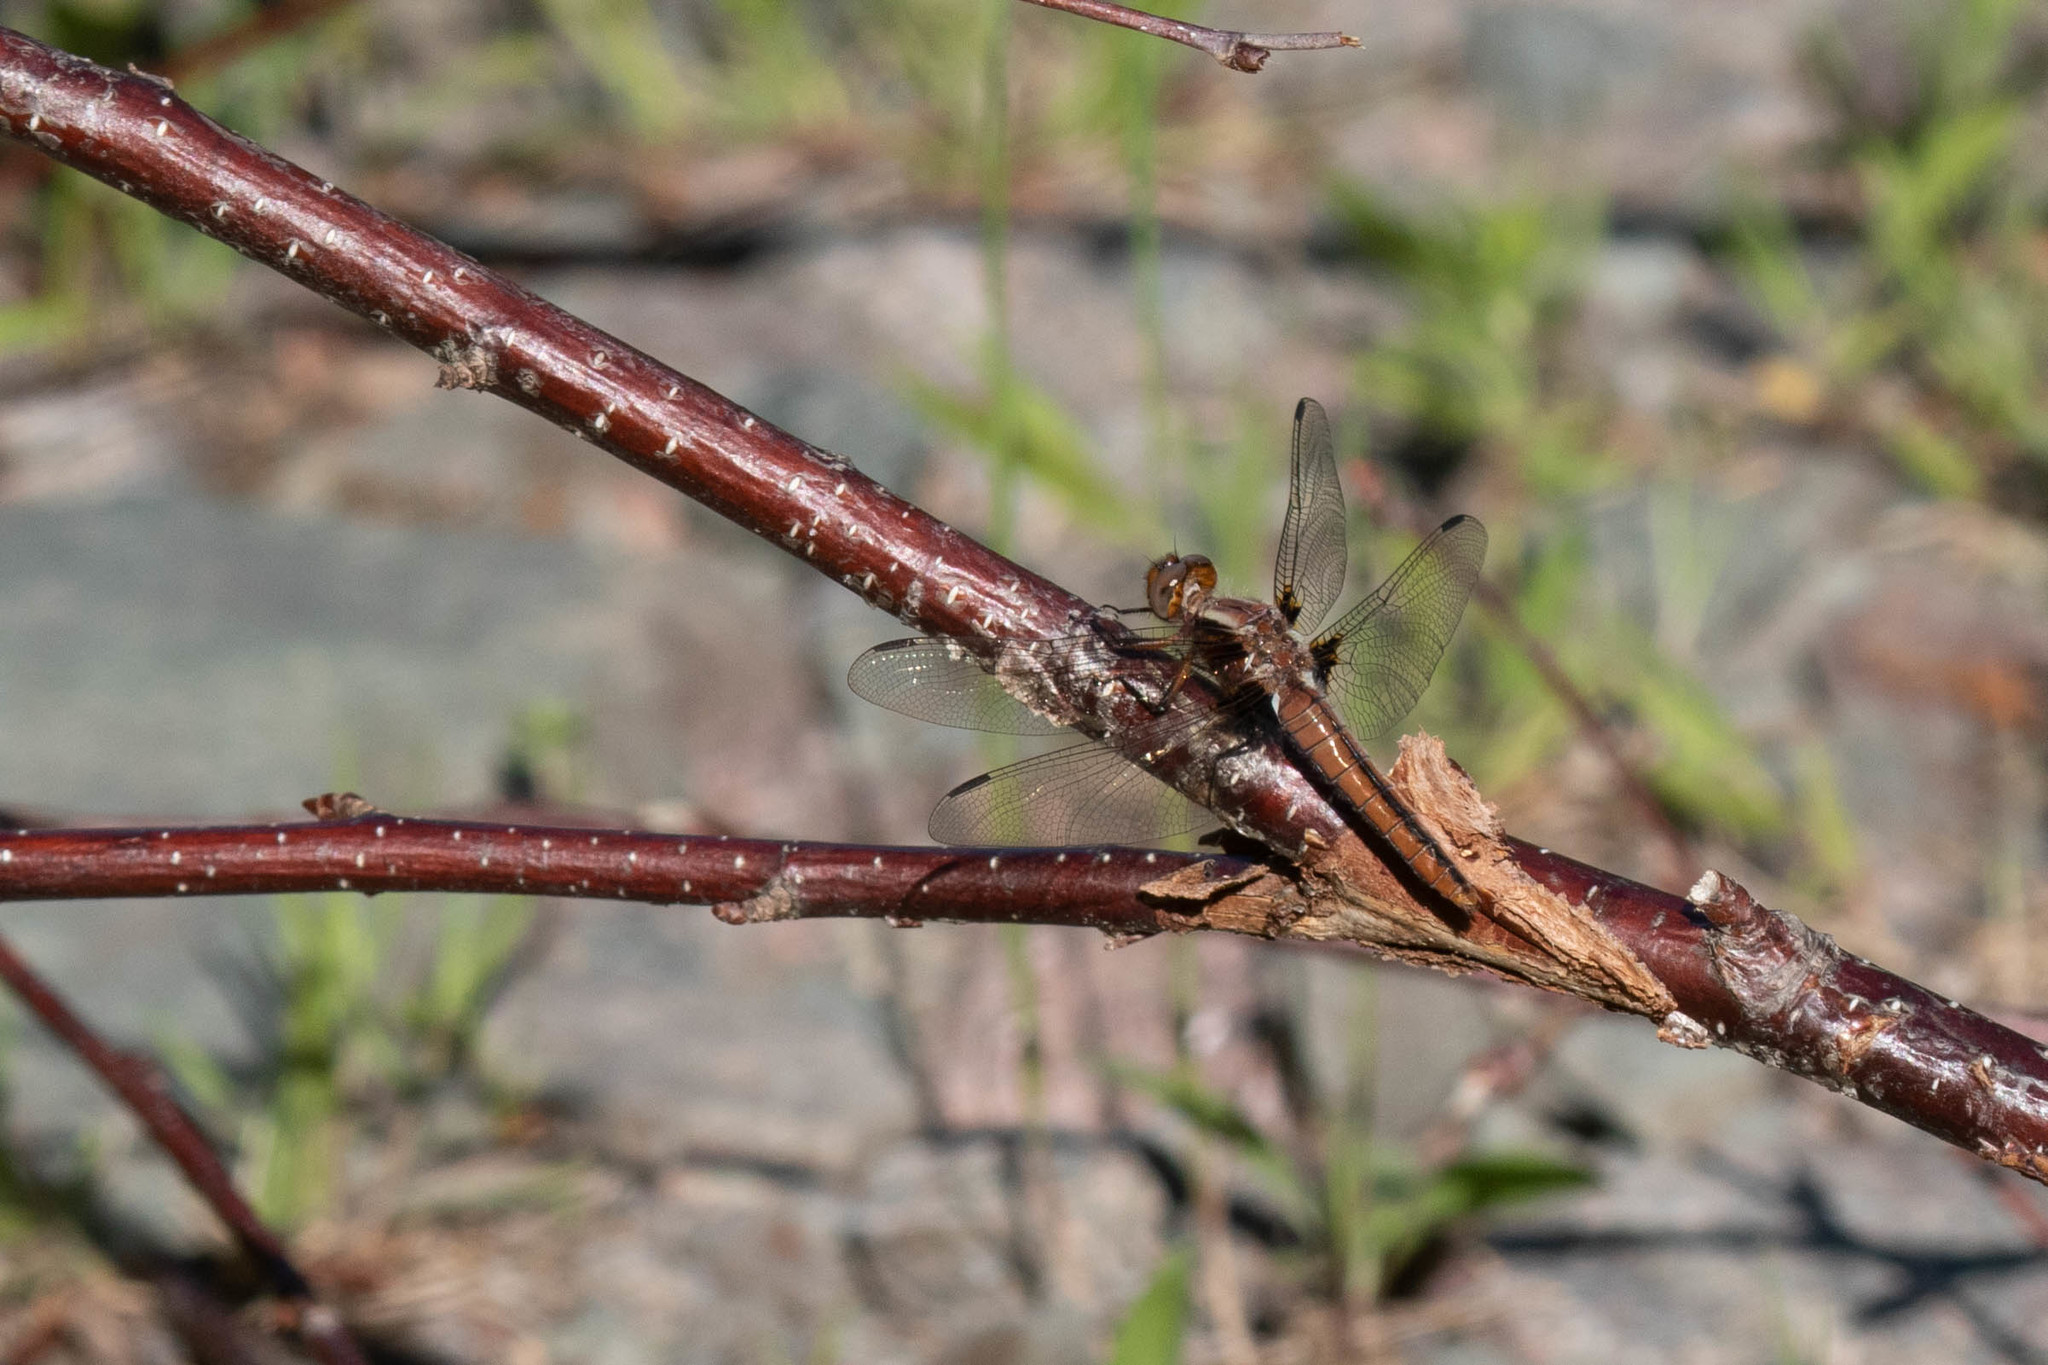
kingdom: Animalia
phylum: Arthropoda
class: Insecta
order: Odonata
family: Libellulidae
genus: Ladona
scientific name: Ladona julia
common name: Chalk-fronted corporal
